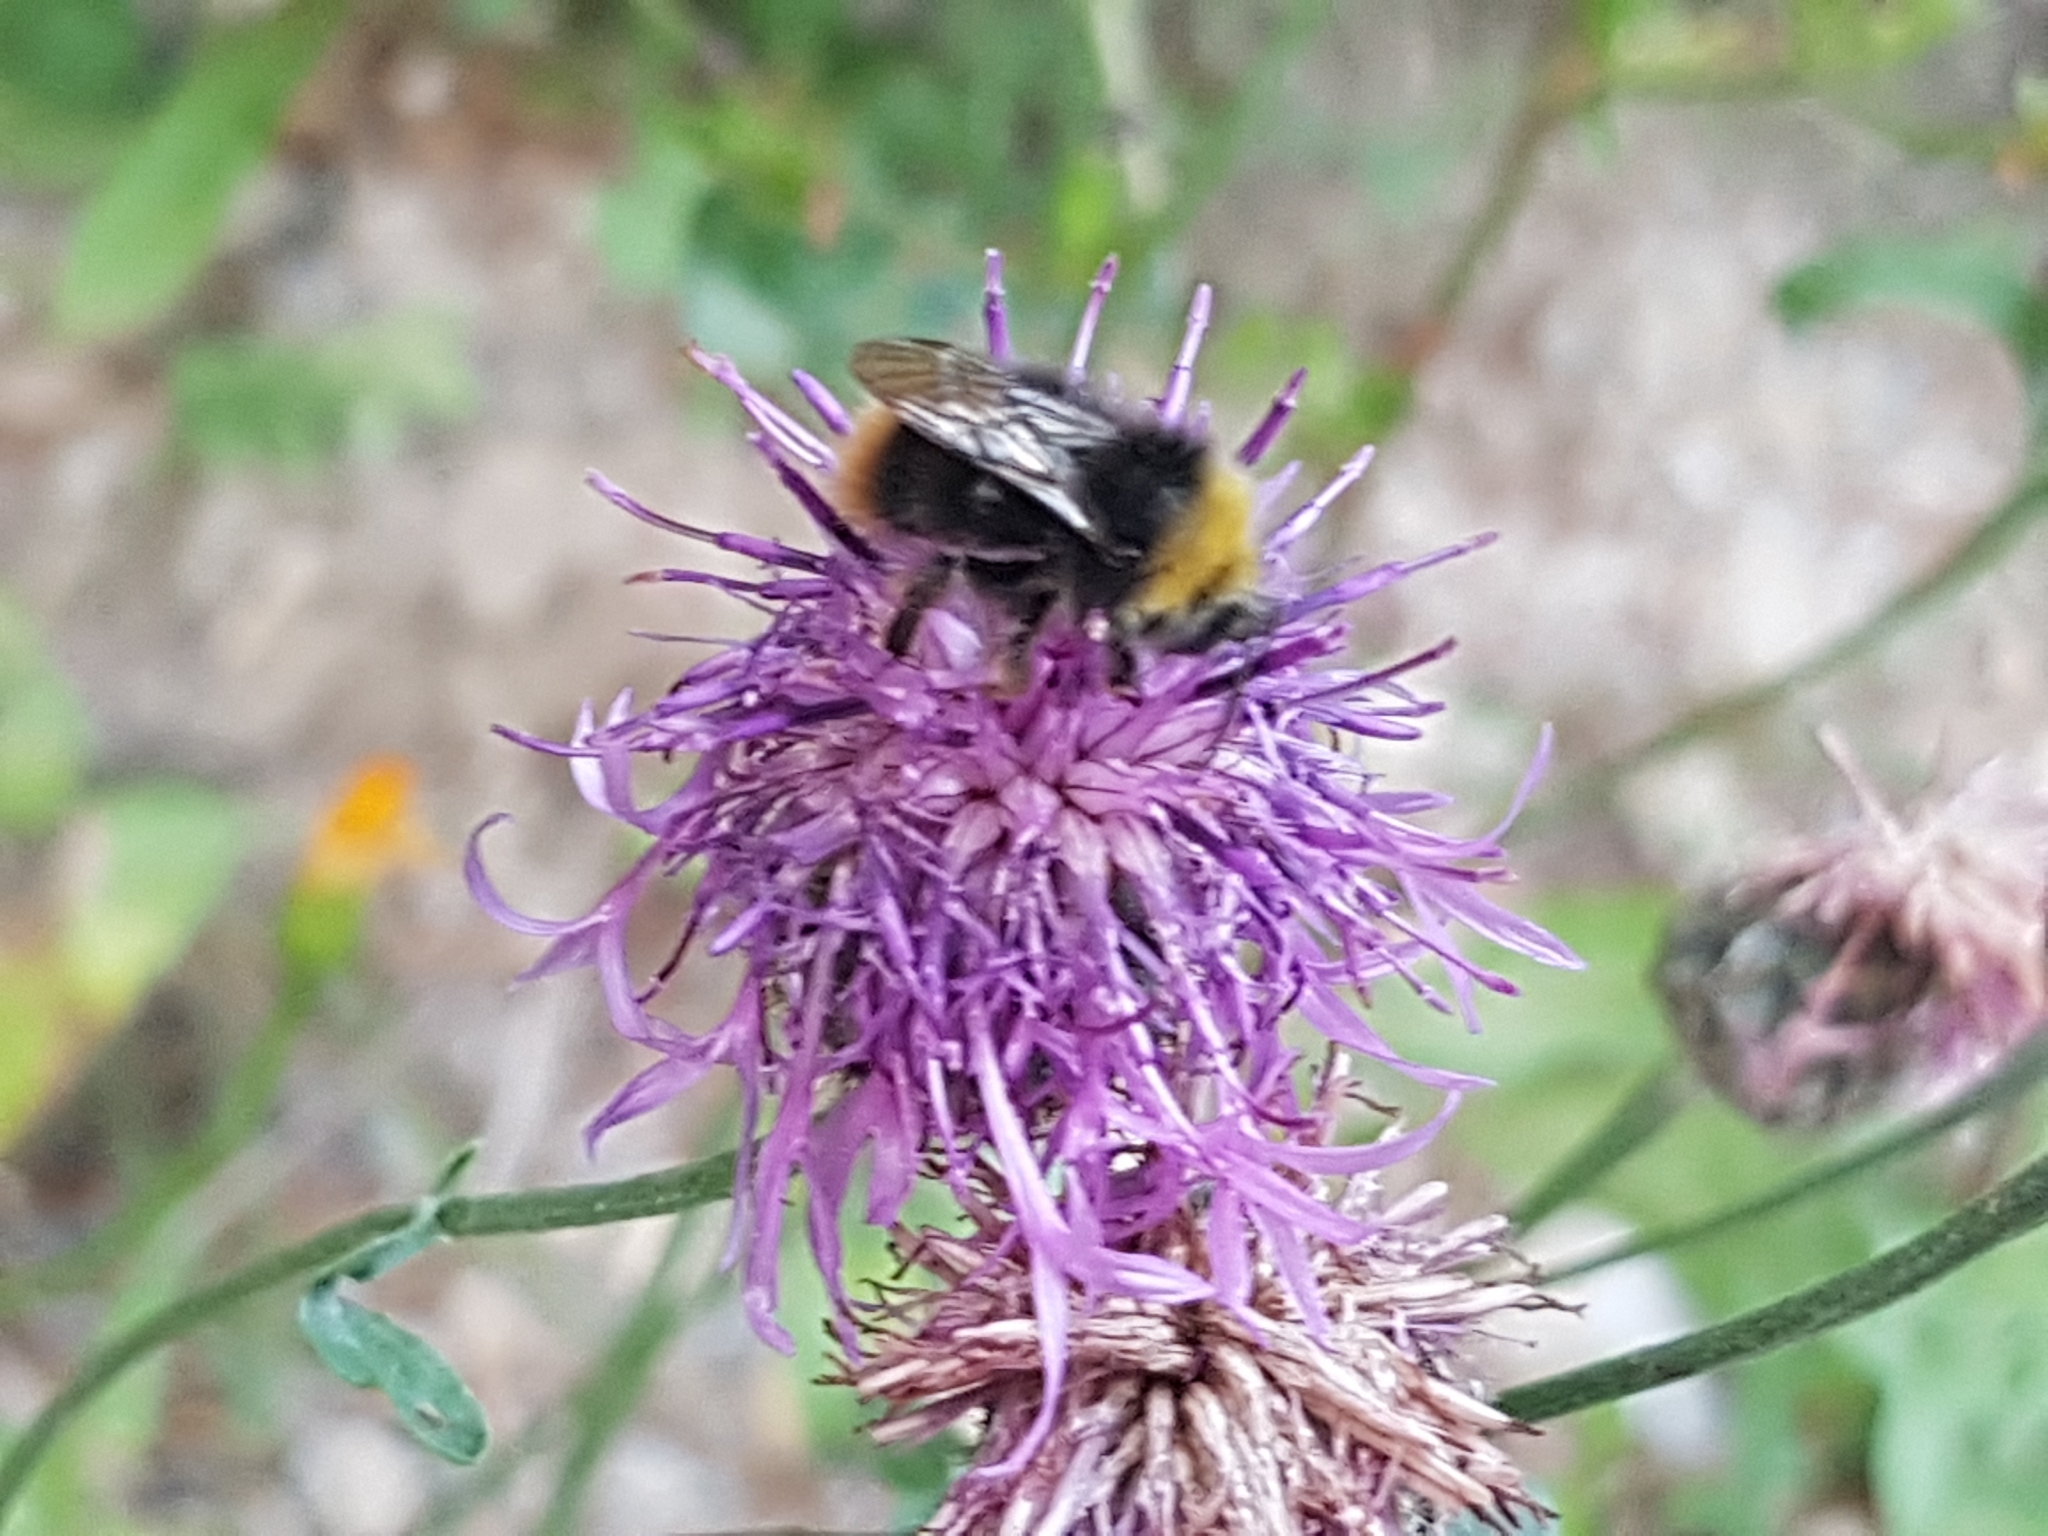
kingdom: Animalia
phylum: Arthropoda
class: Insecta
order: Hymenoptera
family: Apidae
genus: Bombus
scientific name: Bombus pratorum
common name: Early humble-bee
